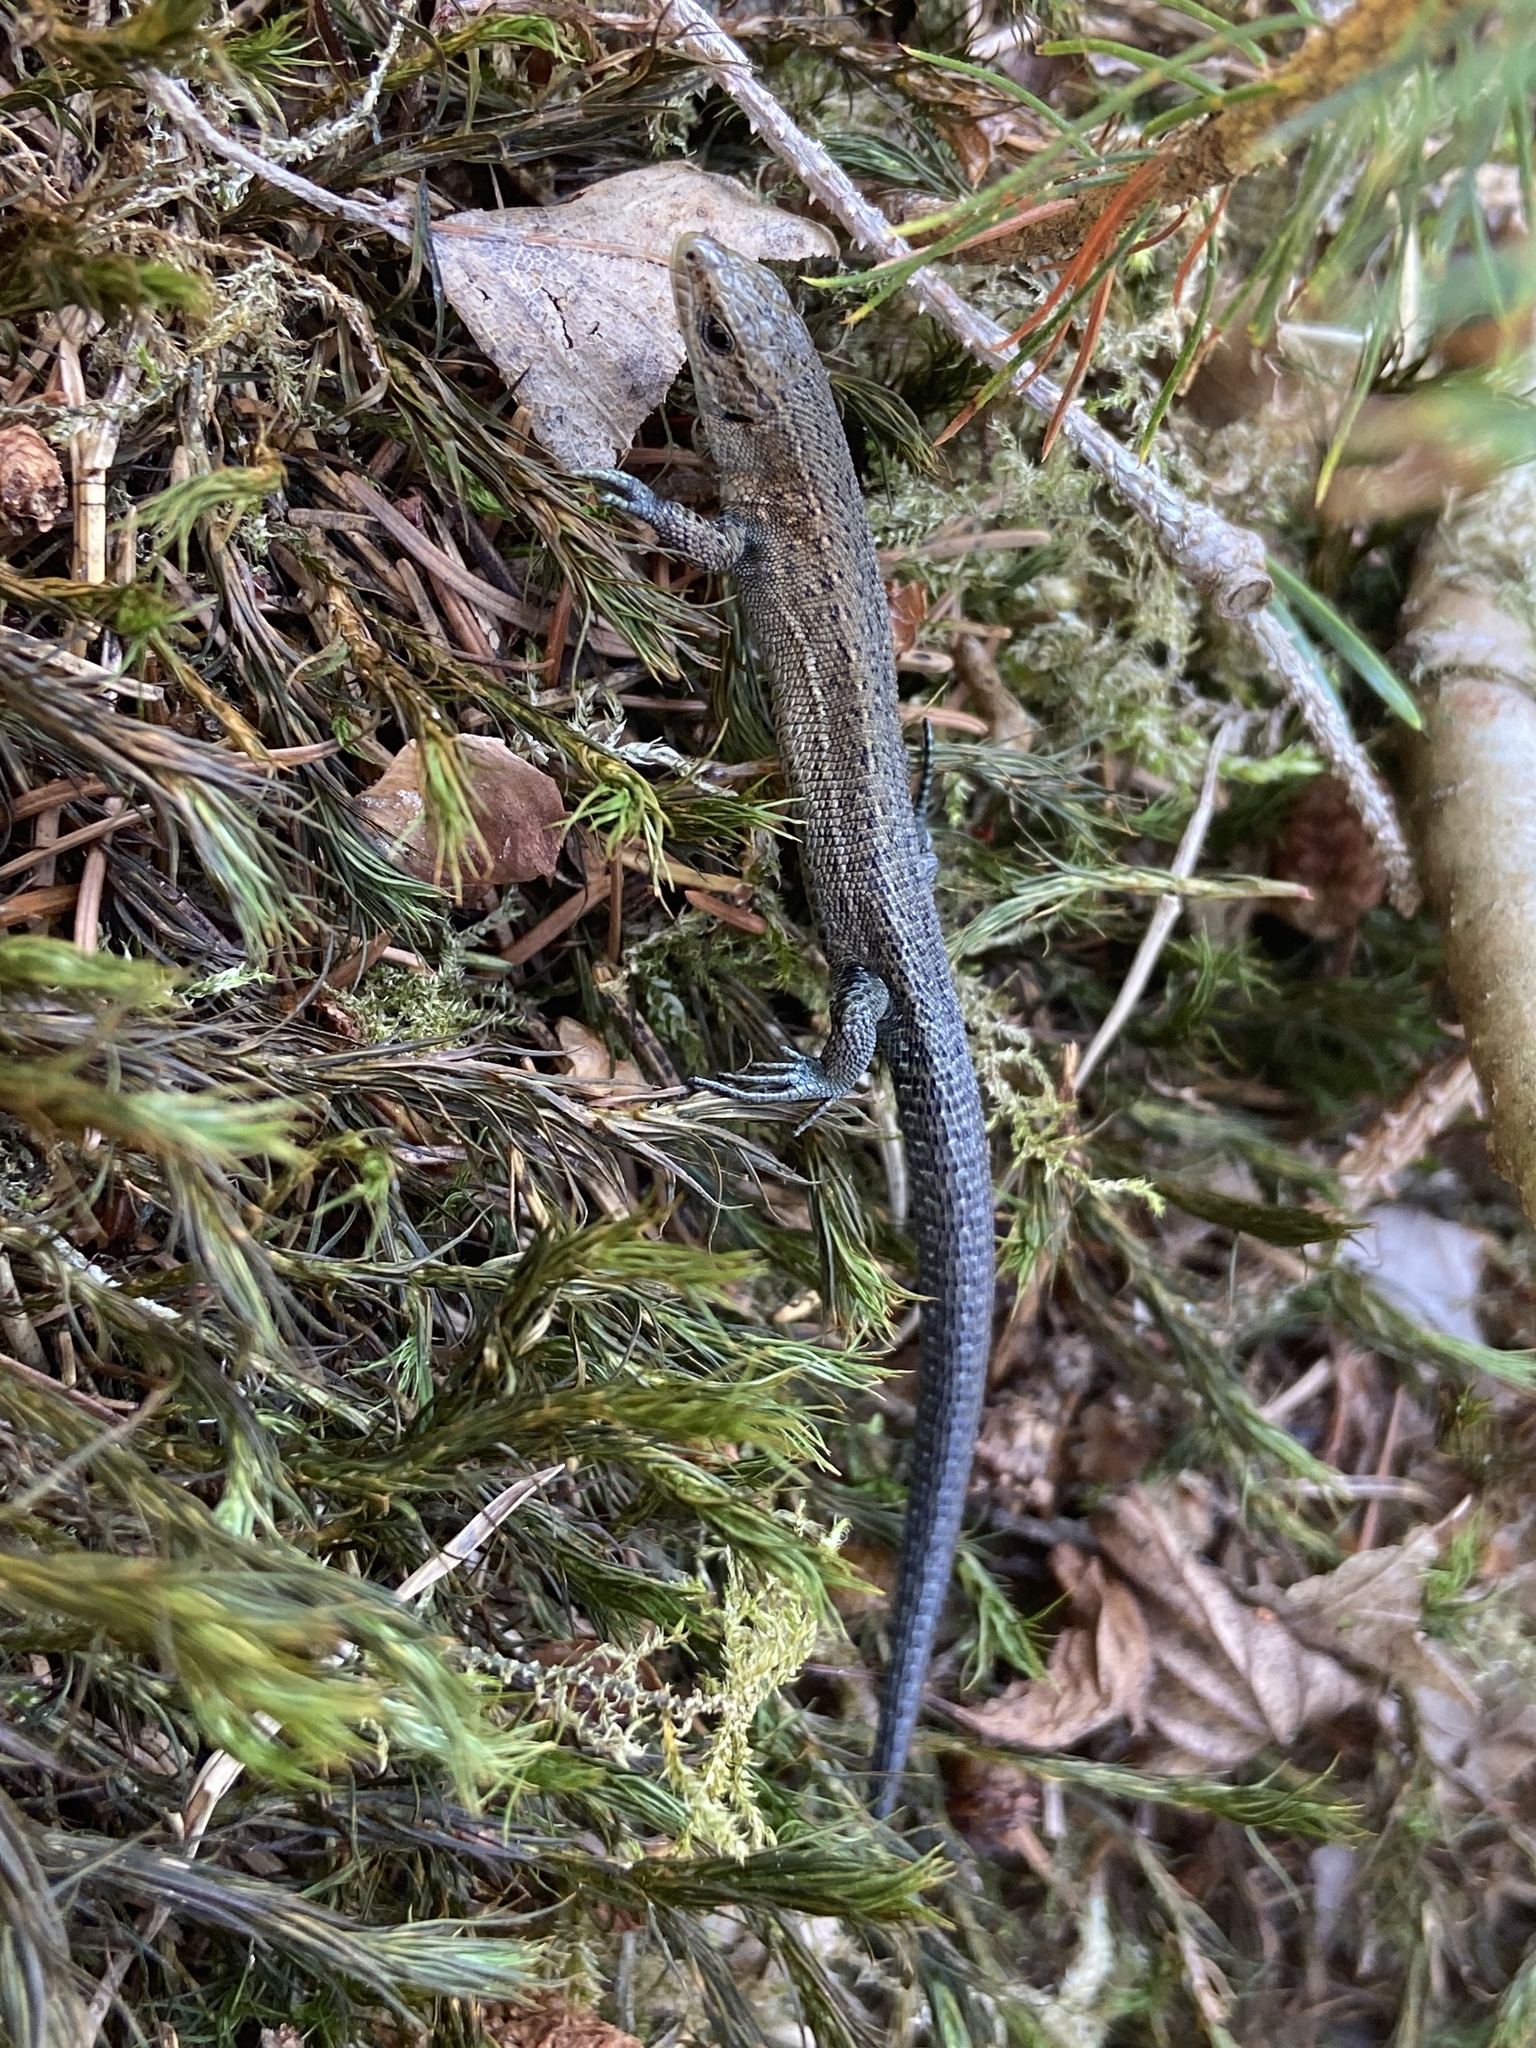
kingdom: Animalia
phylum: Chordata
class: Squamata
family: Lacertidae
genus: Zootoca
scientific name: Zootoca vivipara
